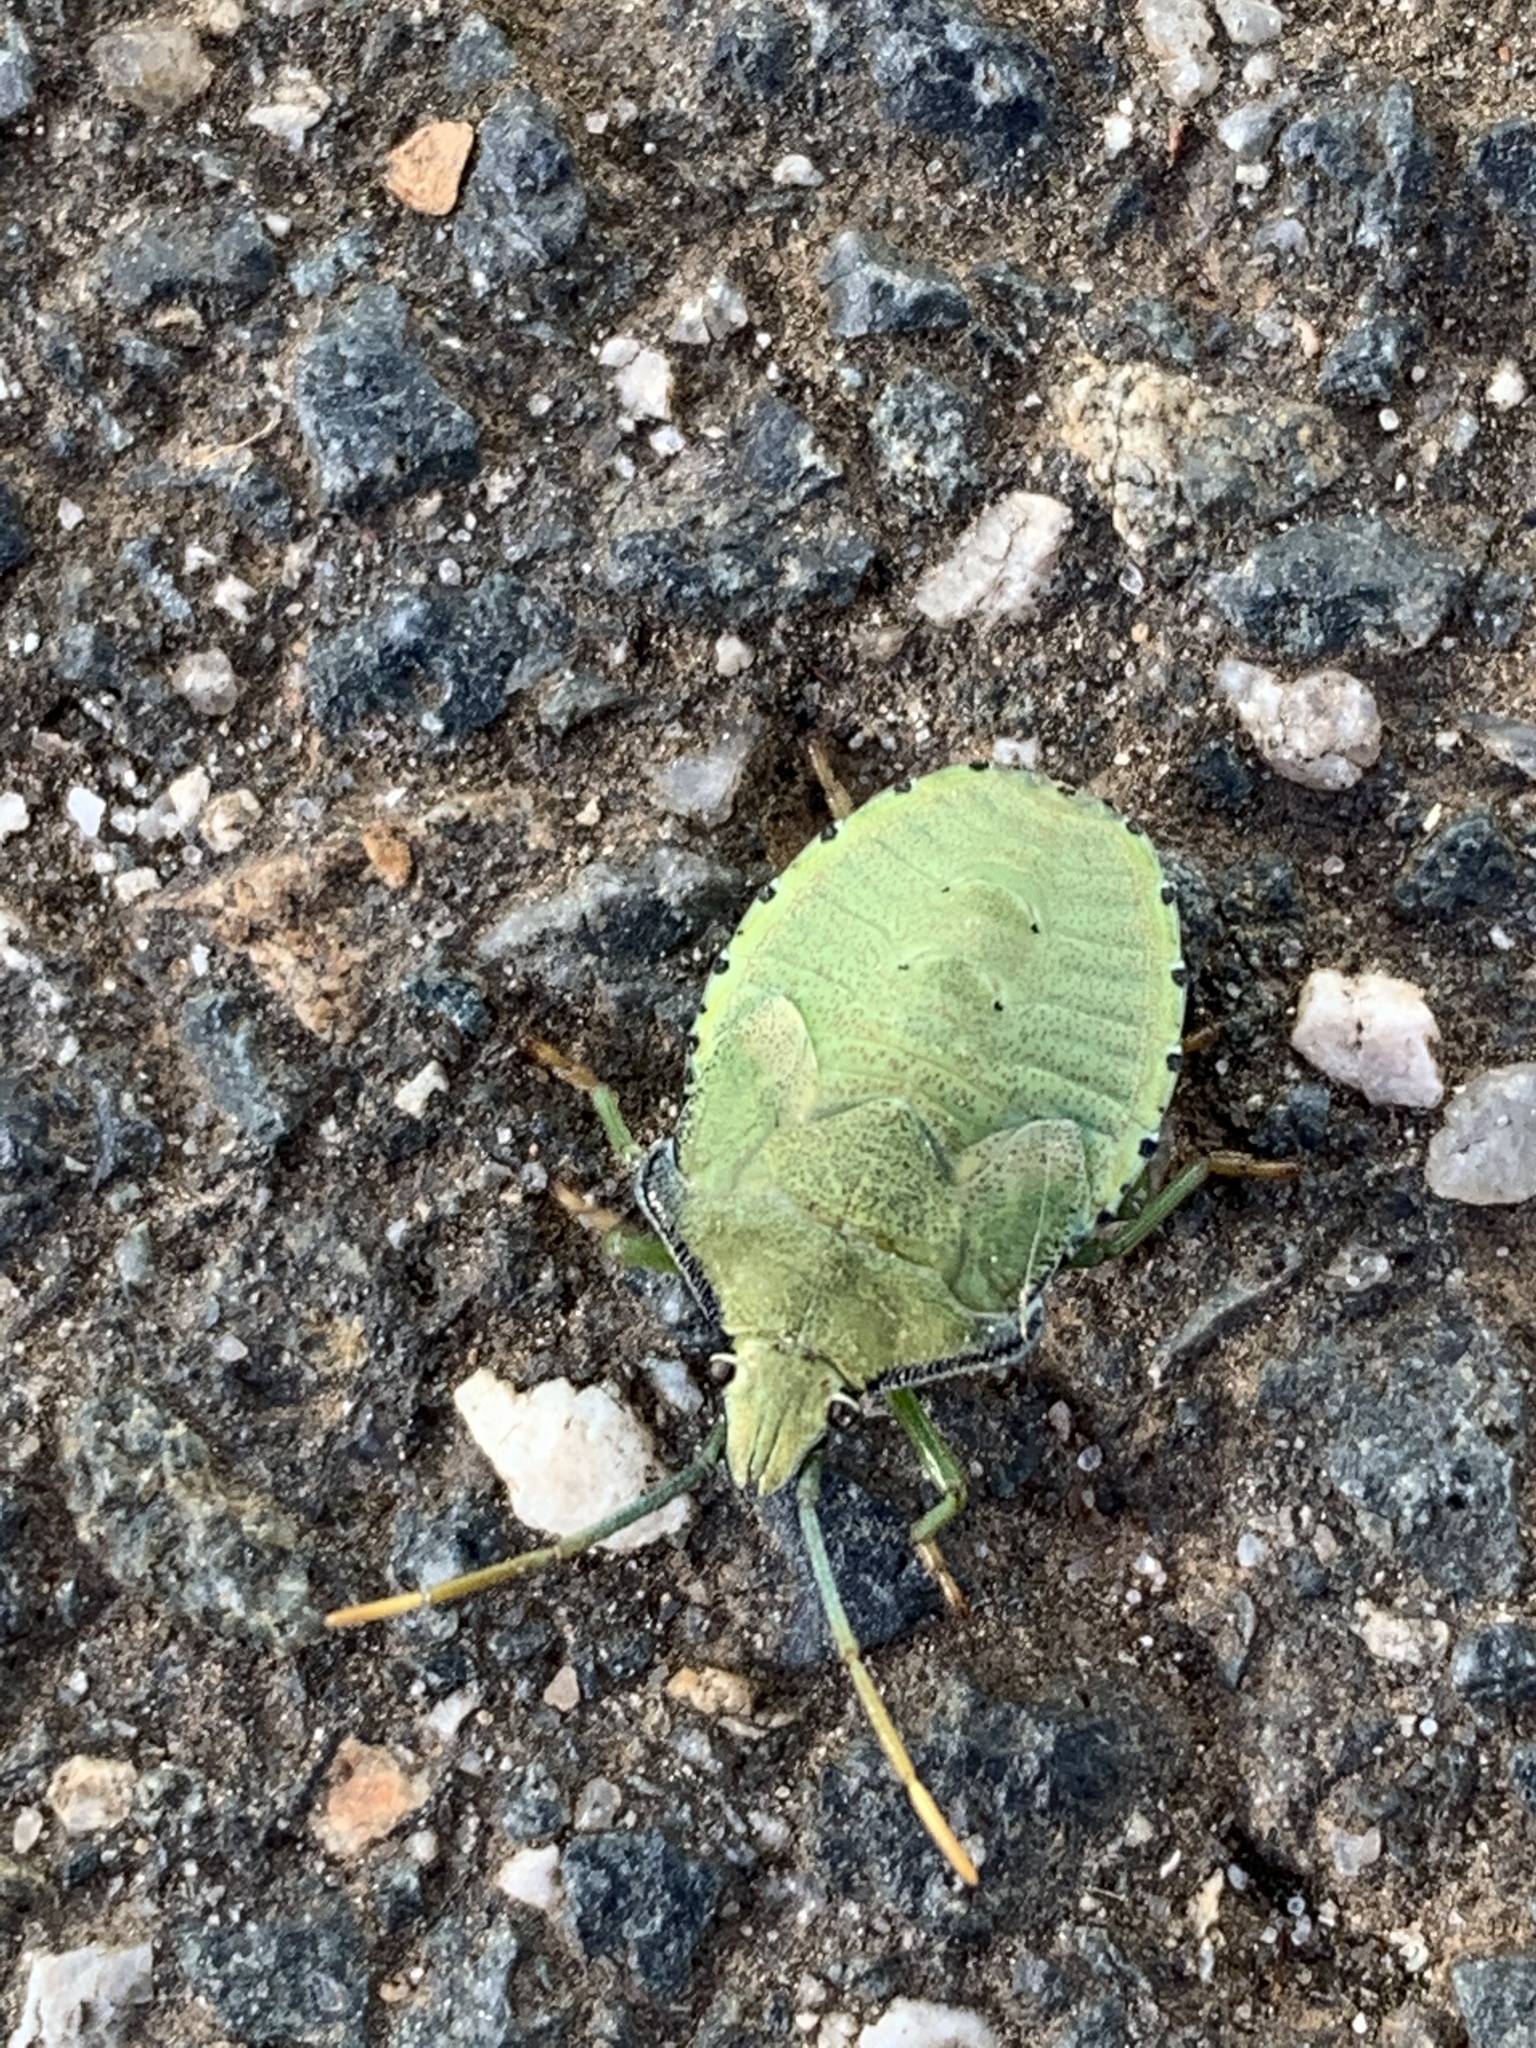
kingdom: Animalia
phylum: Arthropoda
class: Insecta
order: Hemiptera
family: Pentatomidae
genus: Biprorulus
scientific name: Biprorulus
